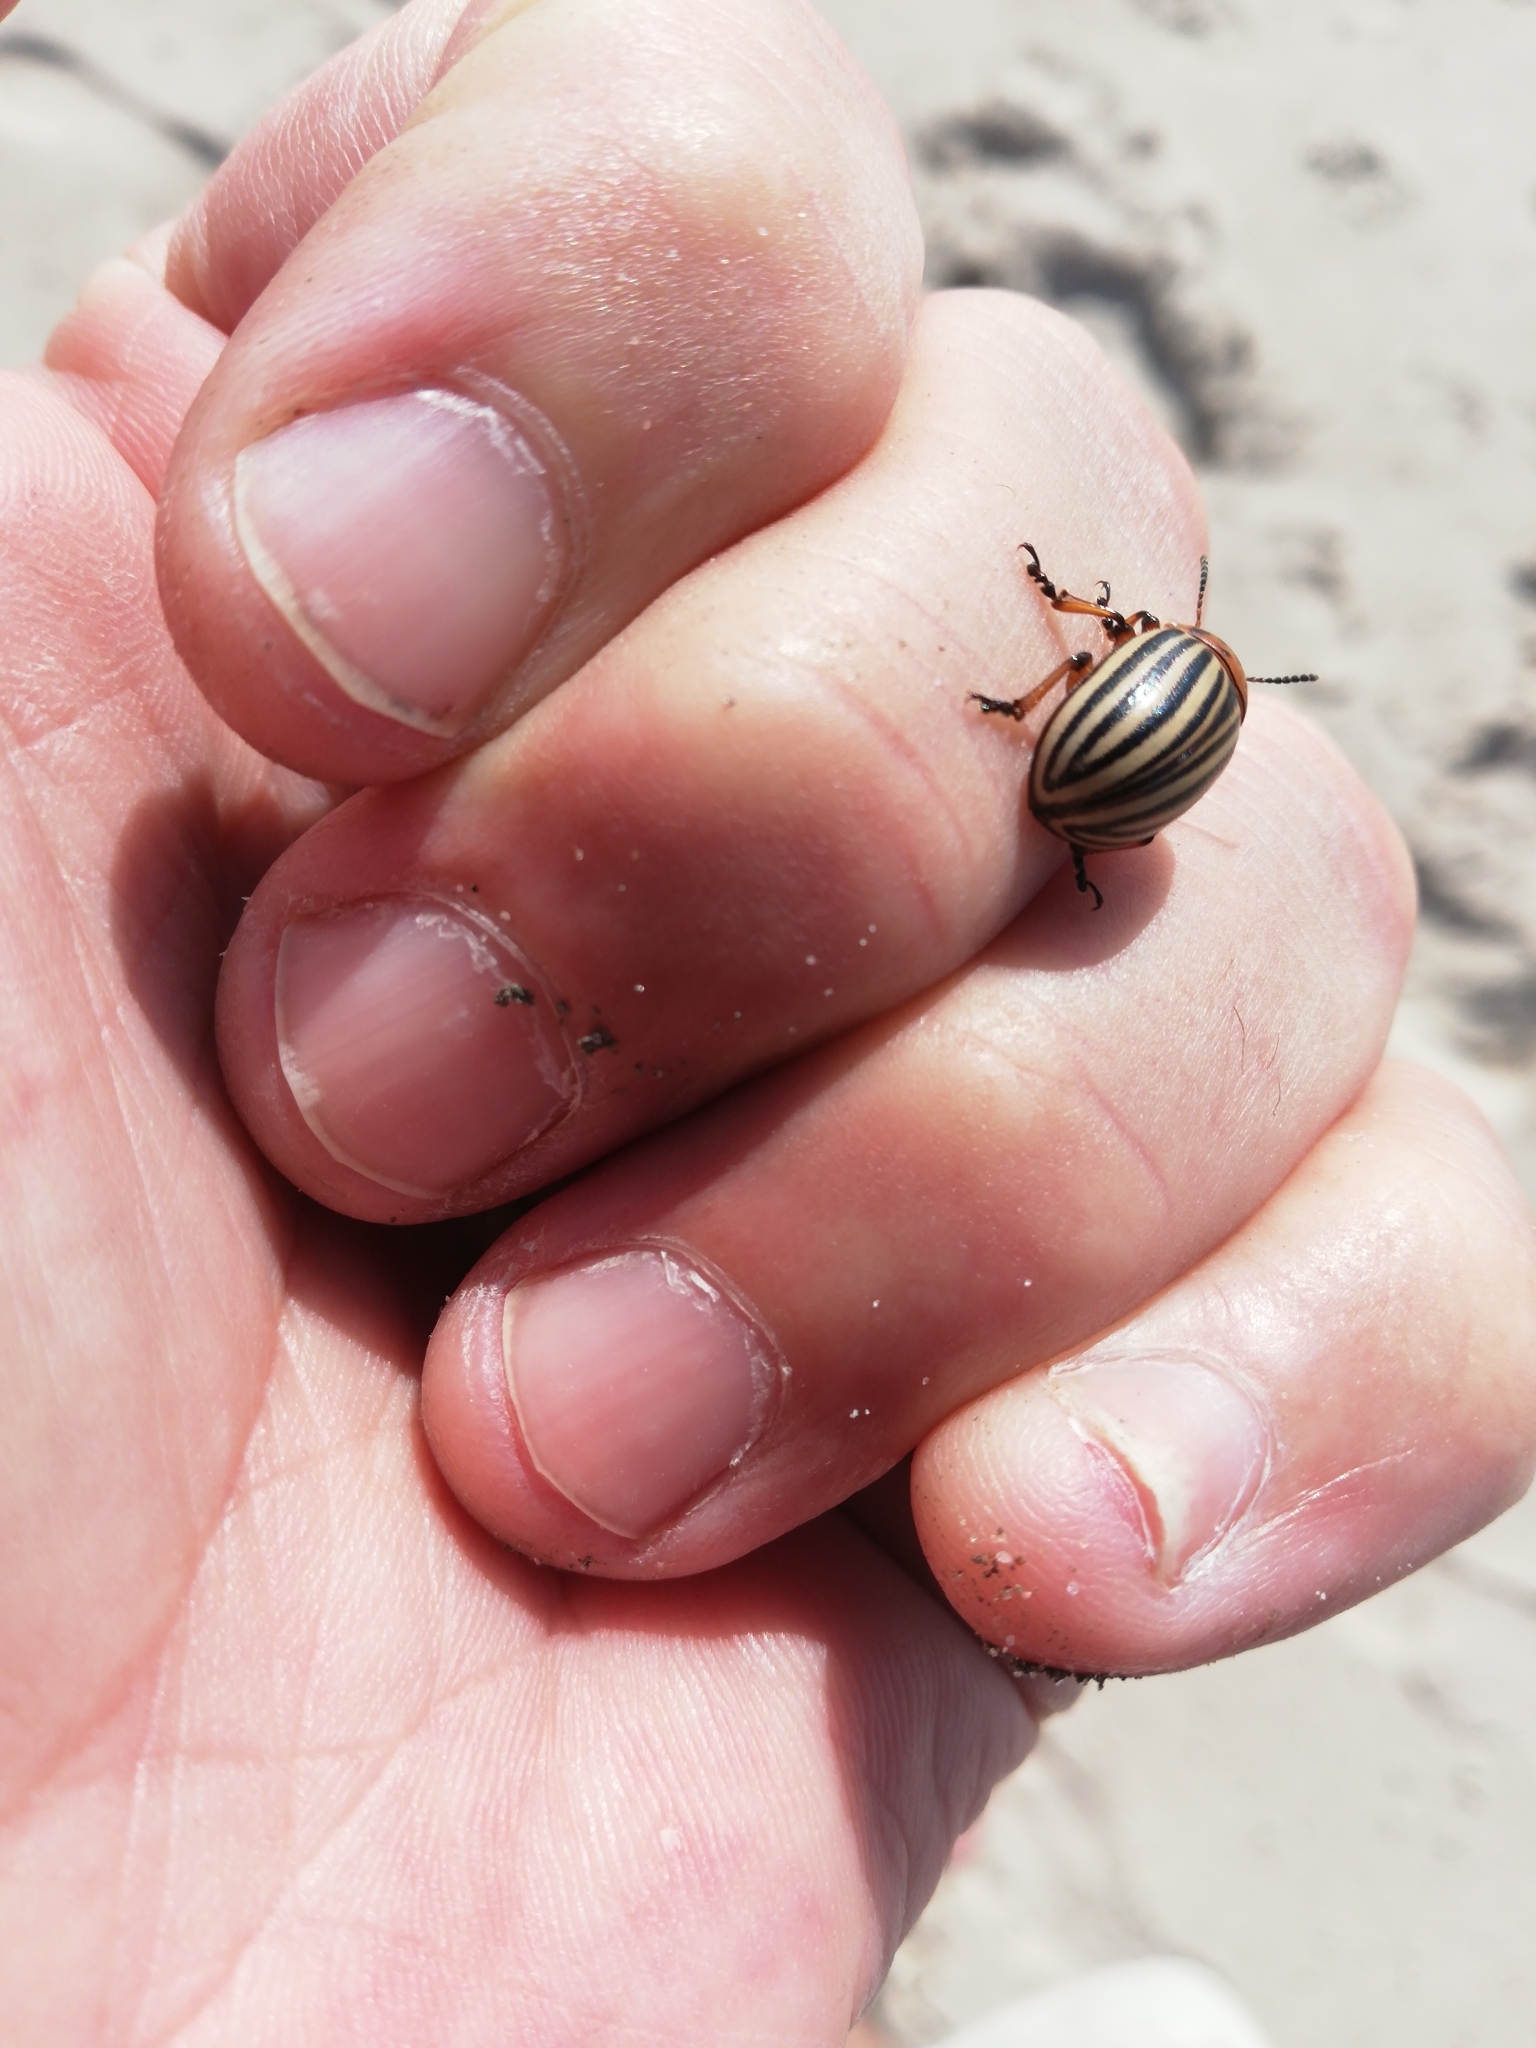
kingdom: Animalia
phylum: Arthropoda
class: Insecta
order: Coleoptera
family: Chrysomelidae
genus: Leptinotarsa
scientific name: Leptinotarsa decemlineata
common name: Colorado potato beetle
